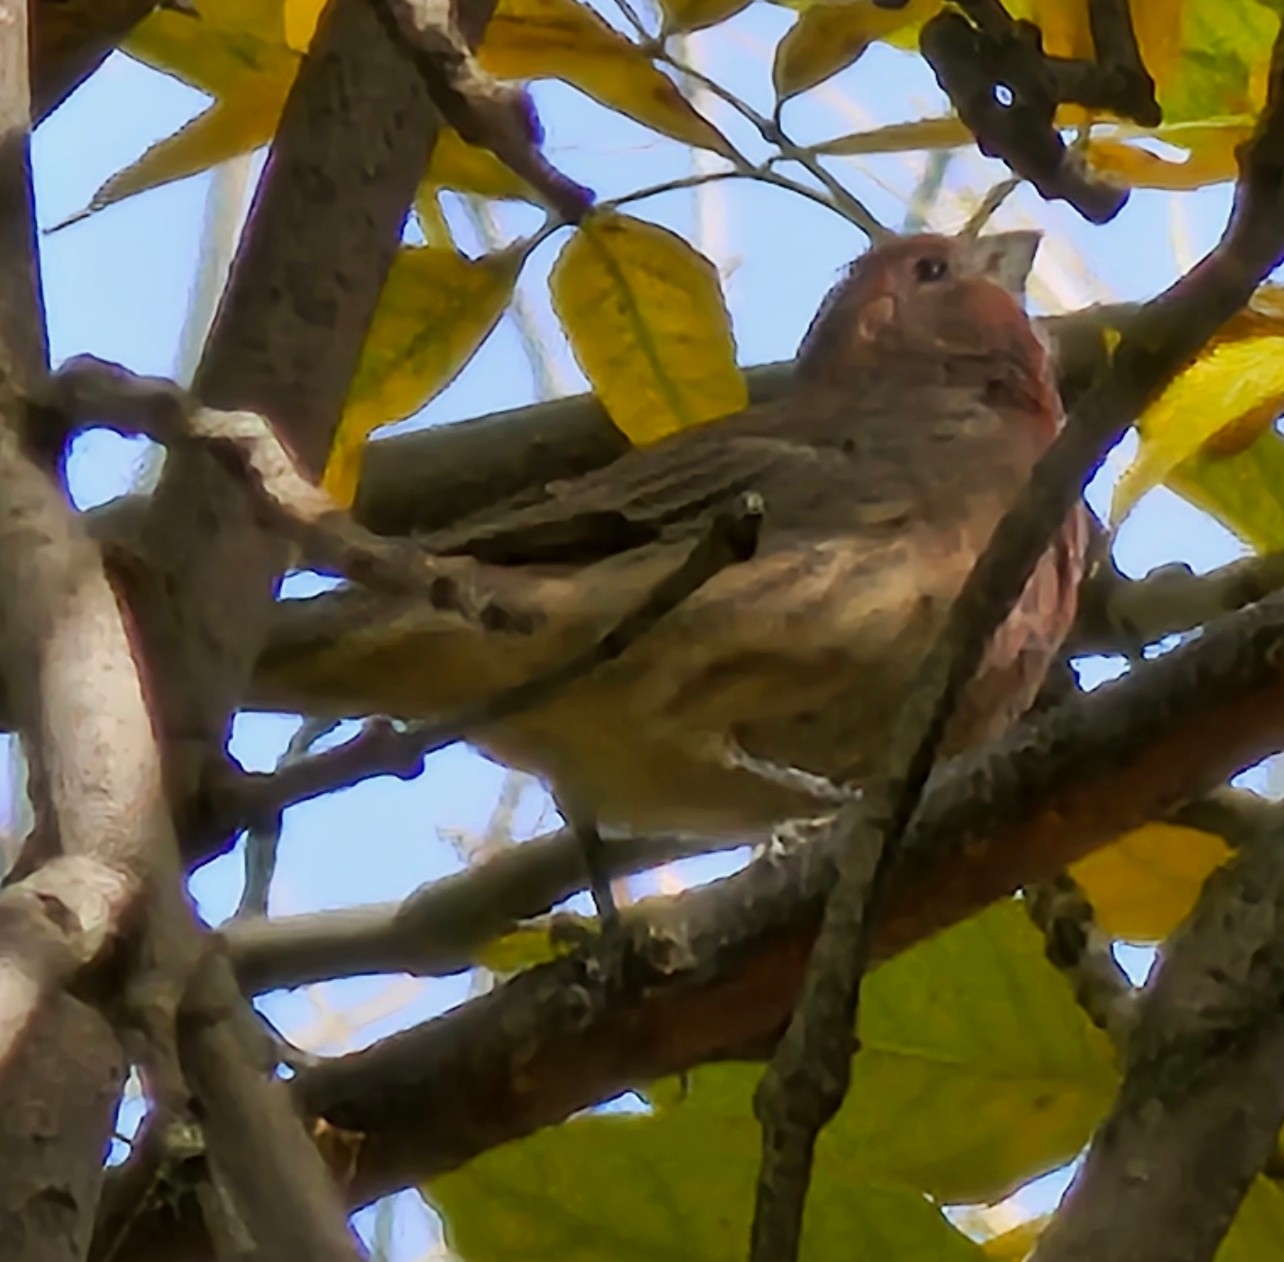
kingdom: Animalia
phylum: Chordata
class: Aves
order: Passeriformes
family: Fringillidae
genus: Haemorhous
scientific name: Haemorhous mexicanus
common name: House finch
